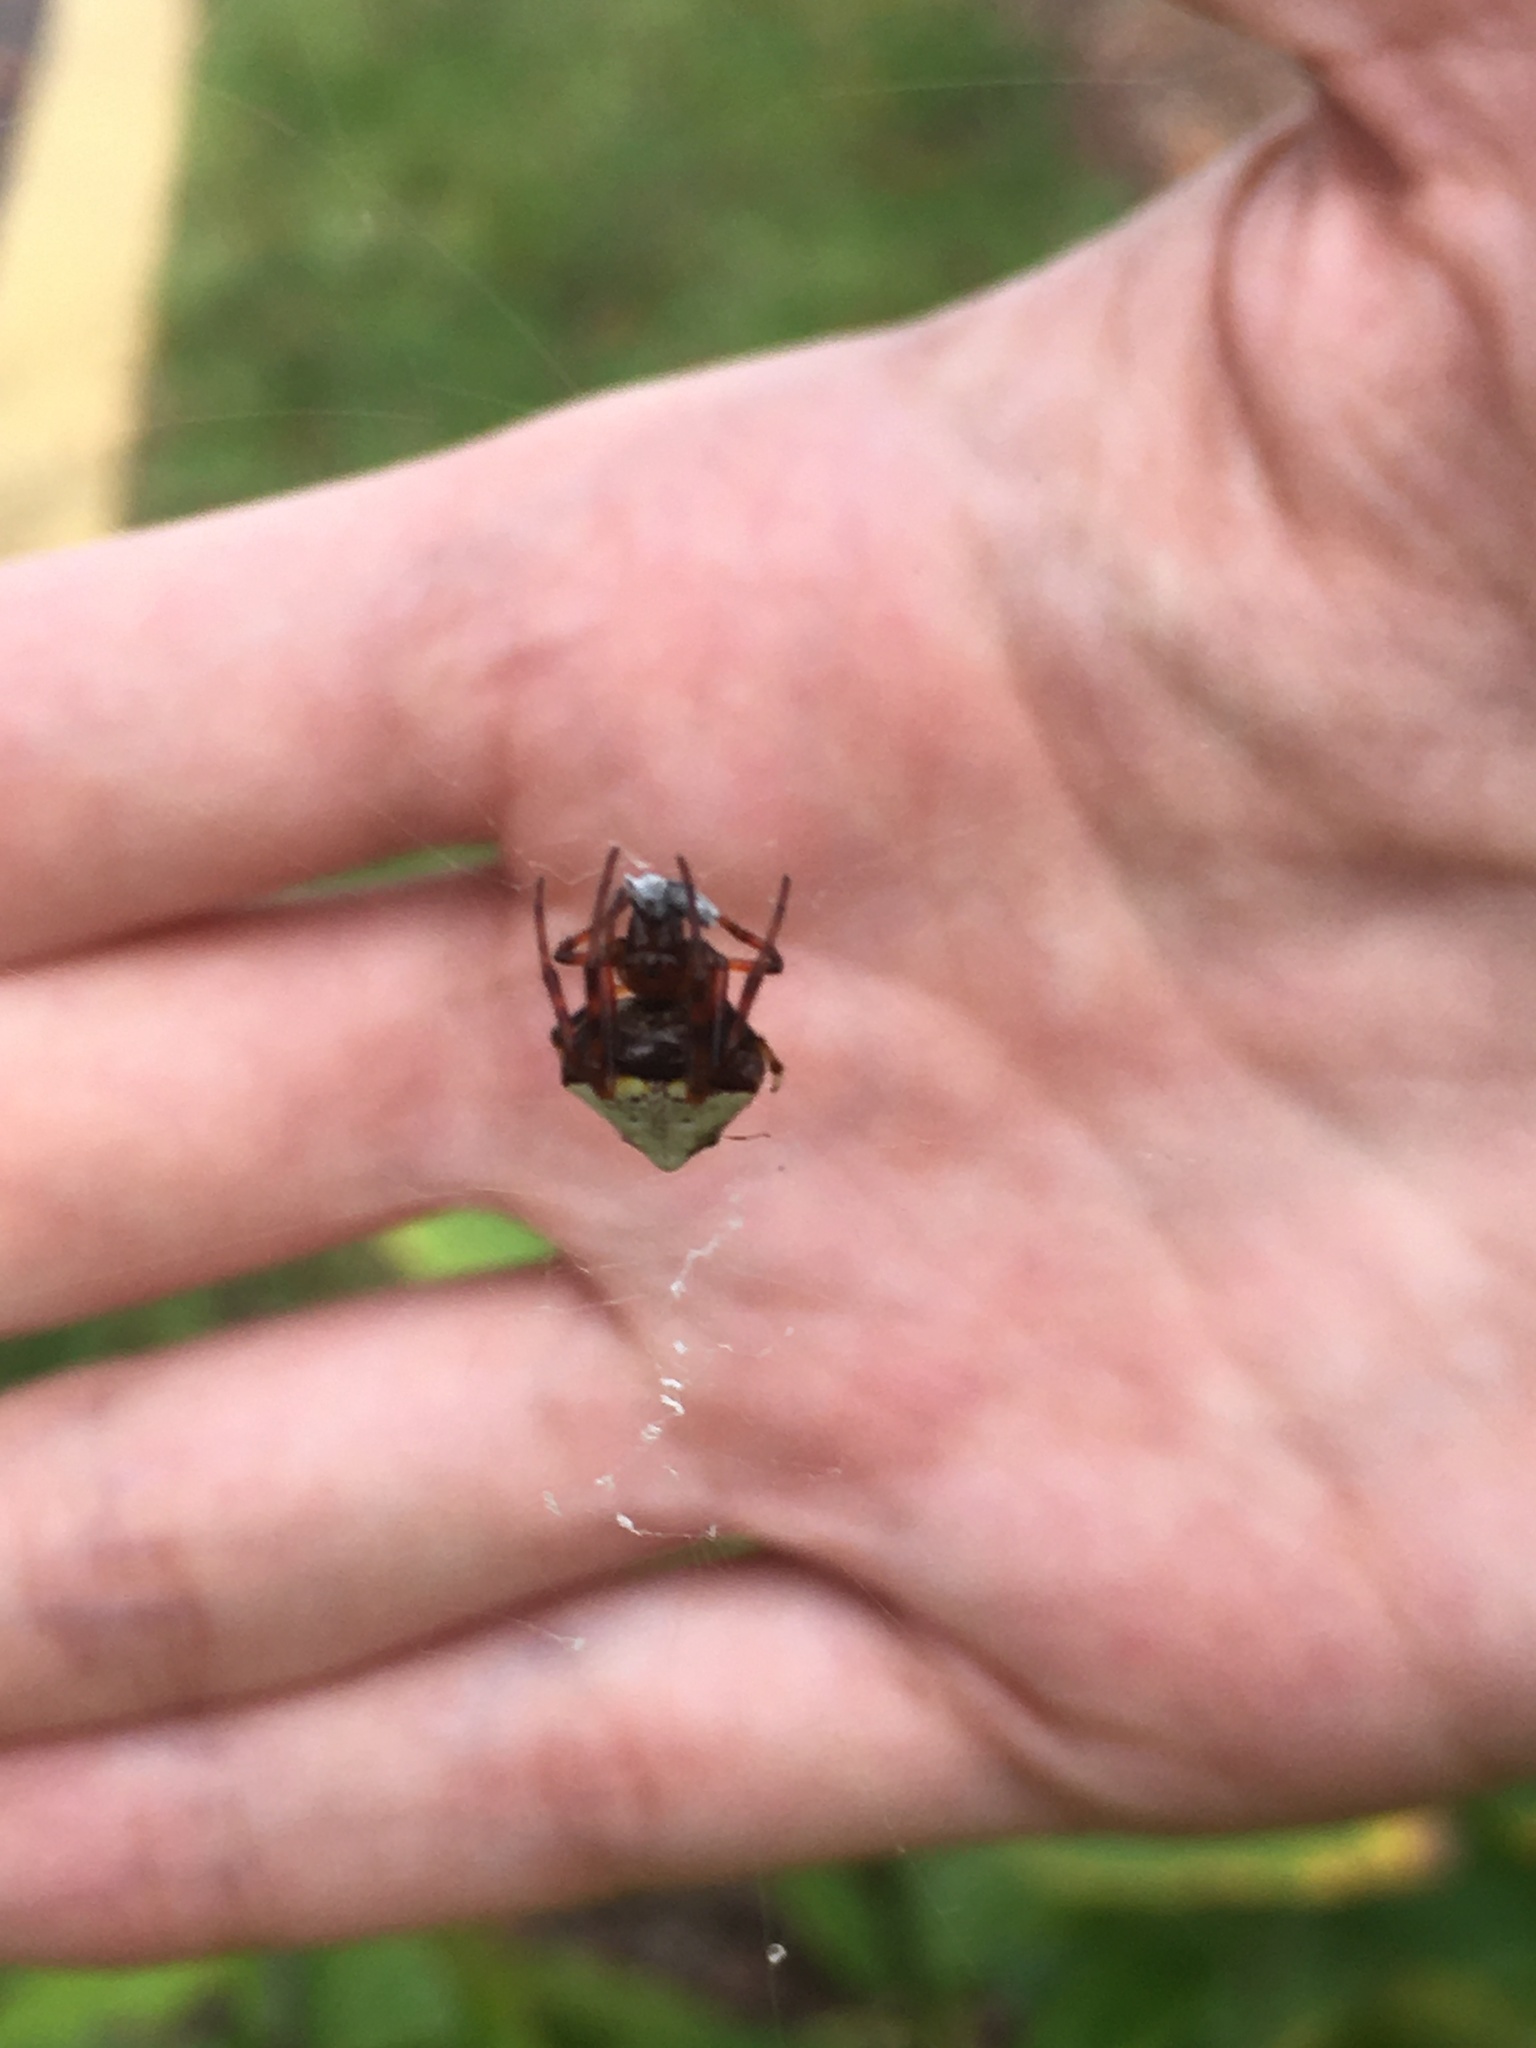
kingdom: Animalia
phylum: Arthropoda
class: Arachnida
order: Araneae
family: Araneidae
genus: Verrucosa
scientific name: Verrucosa arenata
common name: Orb weavers
